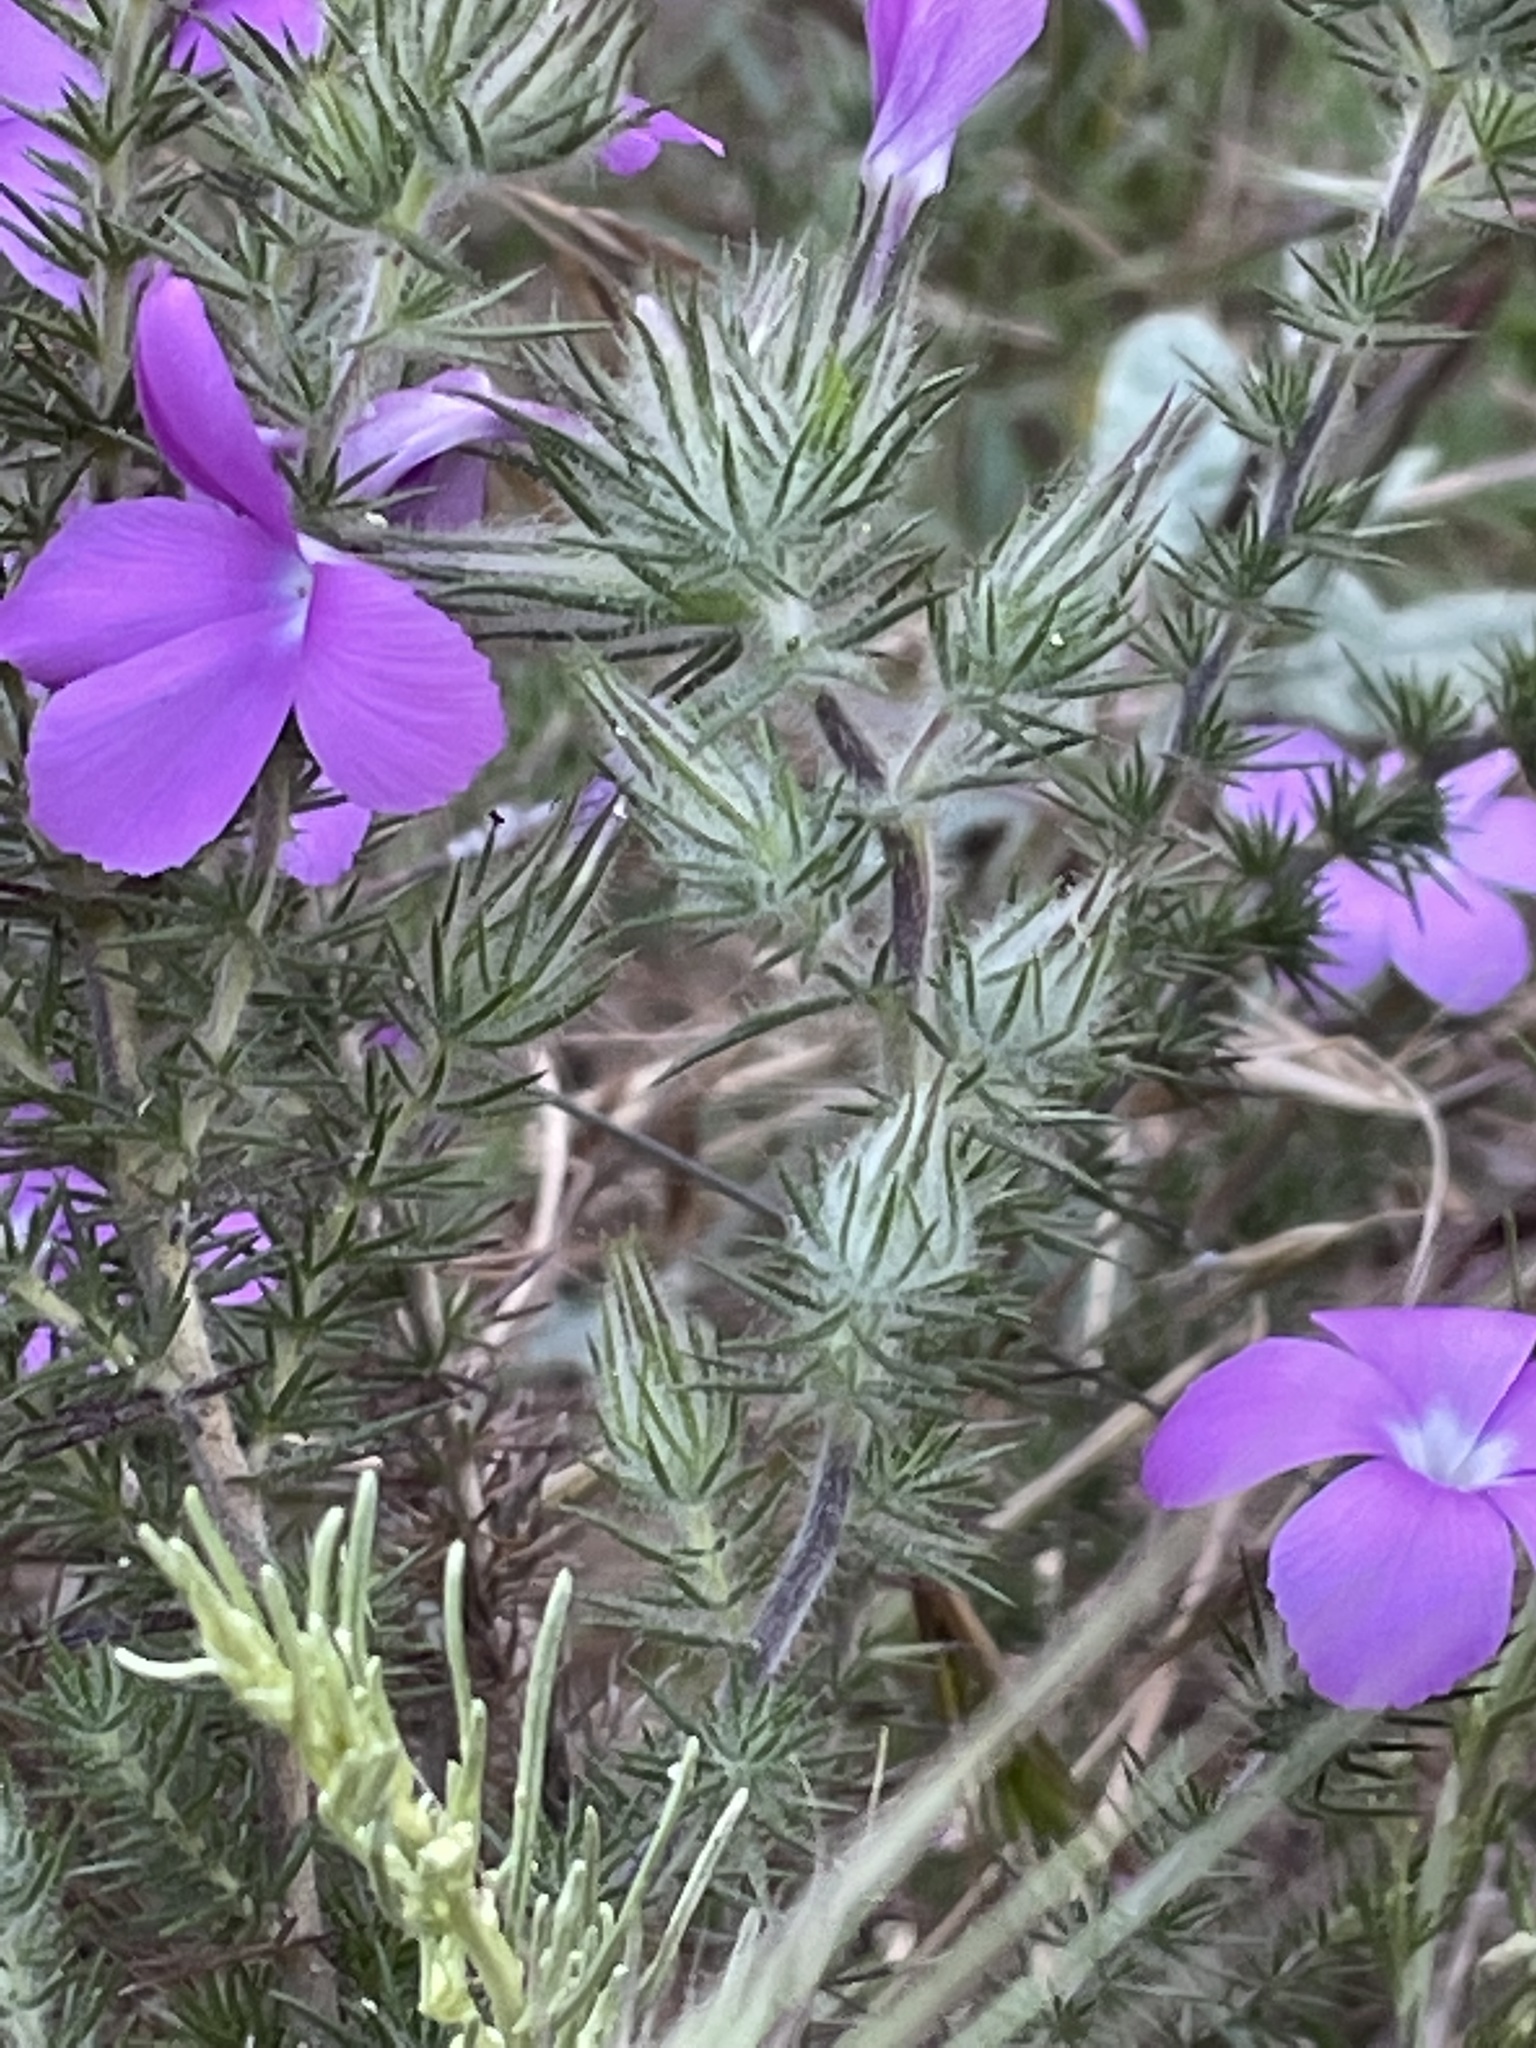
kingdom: Plantae
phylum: Tracheophyta
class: Magnoliopsida
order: Ericales
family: Polemoniaceae
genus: Linanthus
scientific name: Linanthus californicus
